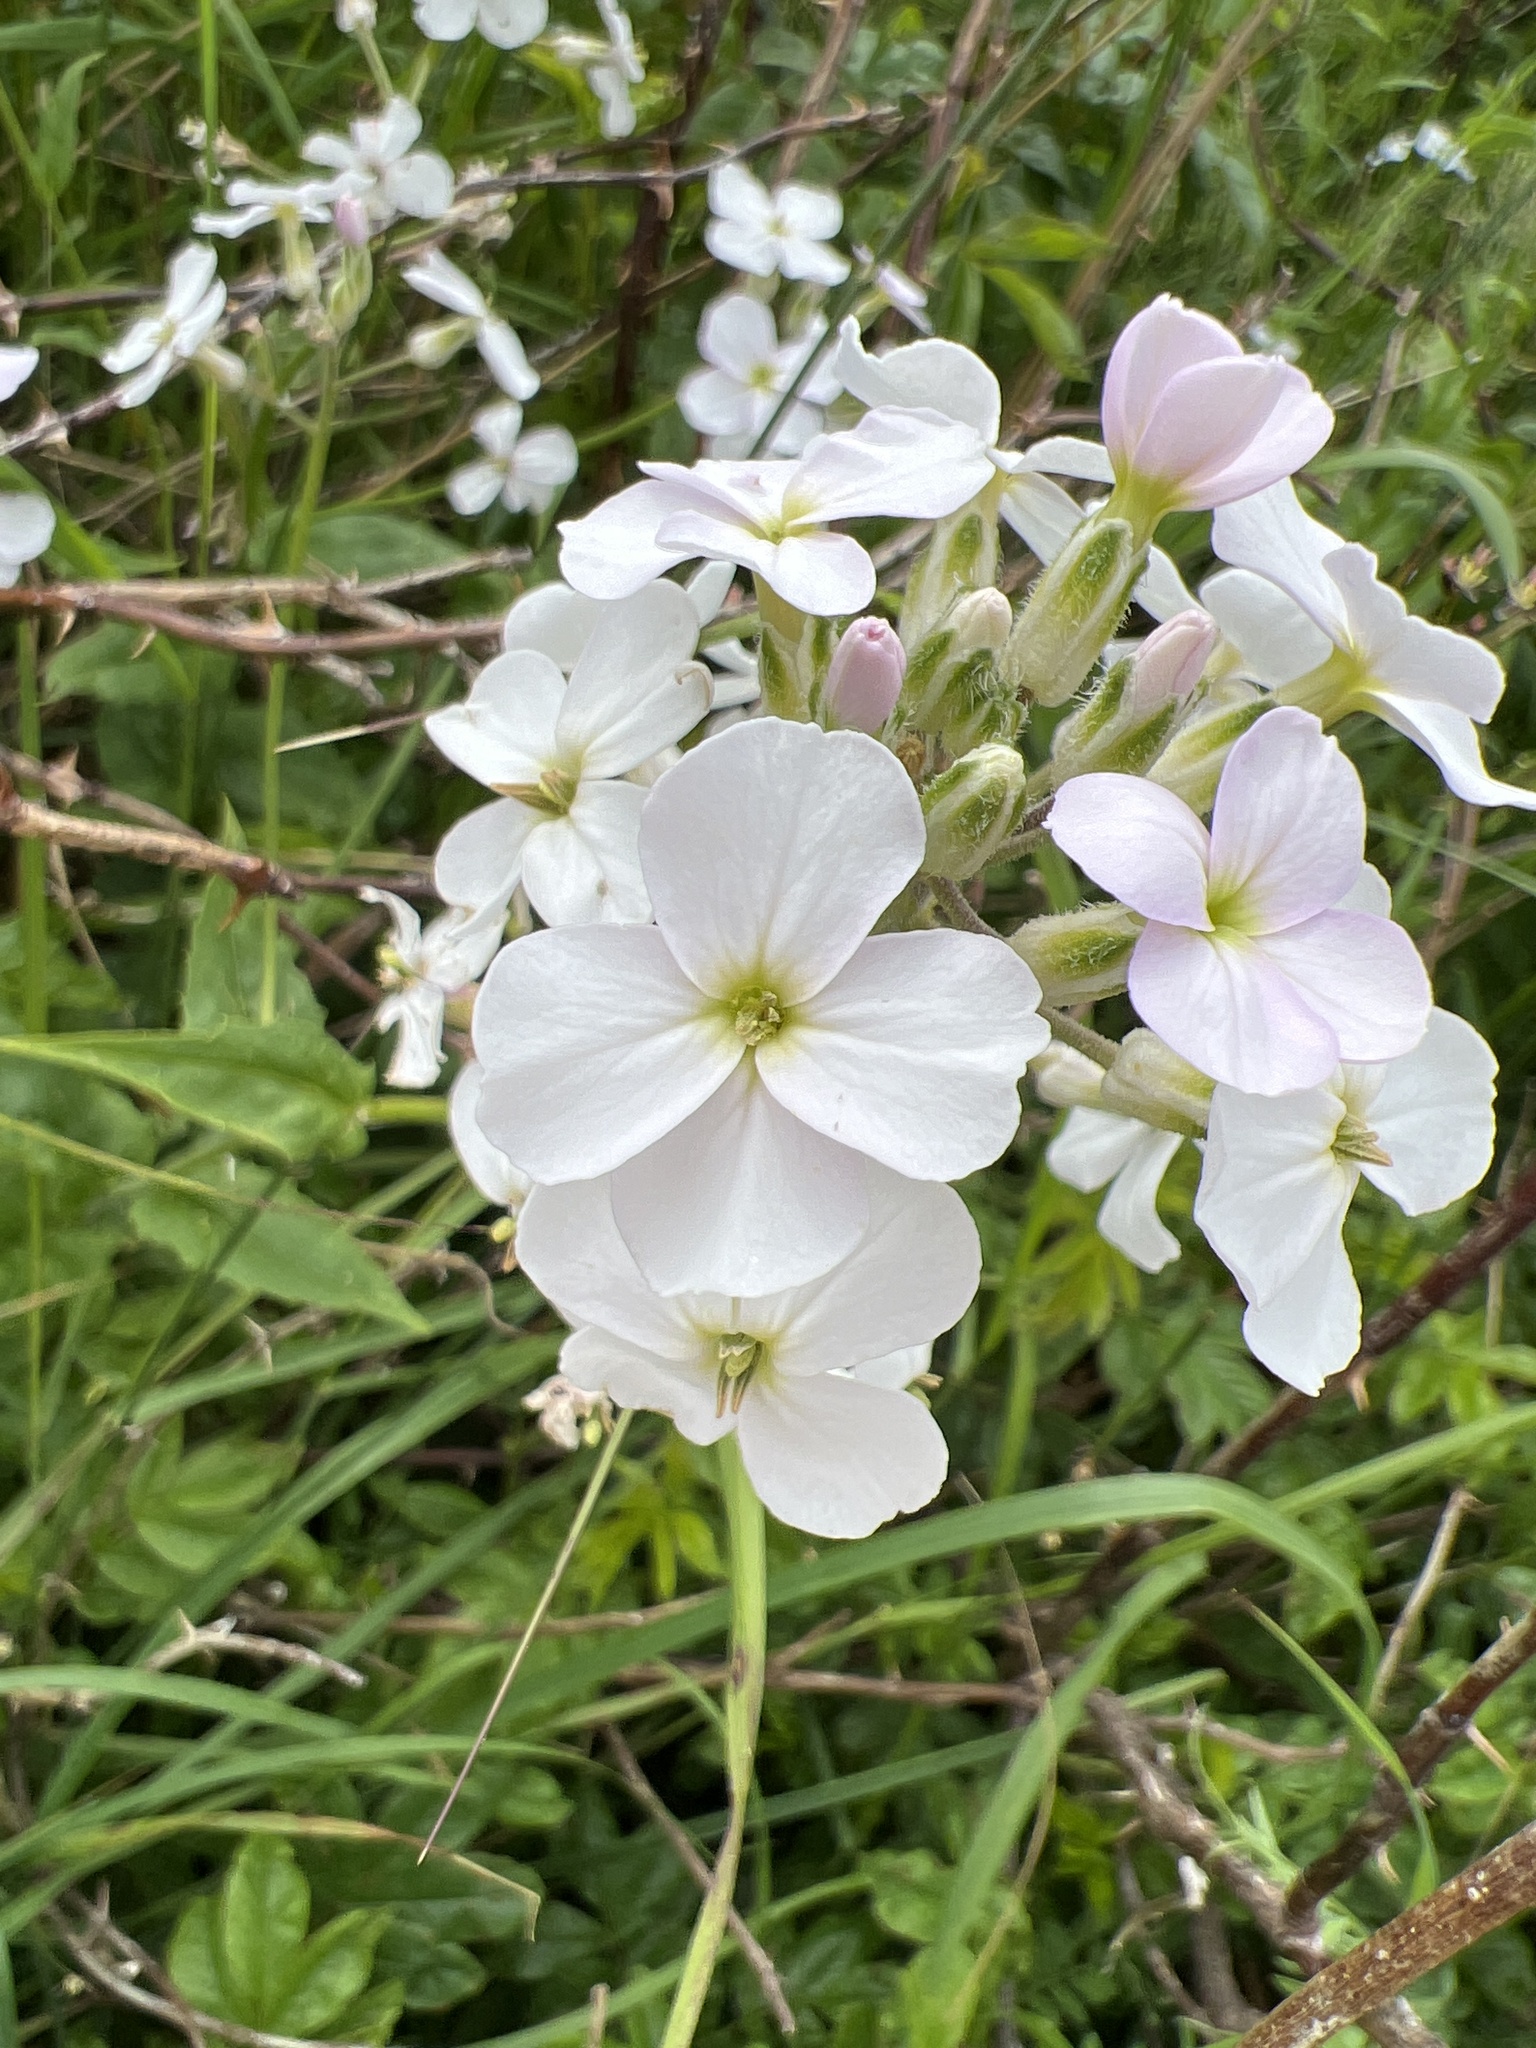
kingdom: Plantae
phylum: Tracheophyta
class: Magnoliopsida
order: Brassicales
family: Brassicaceae
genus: Hesperis
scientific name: Hesperis matronalis
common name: Dame's-violet
